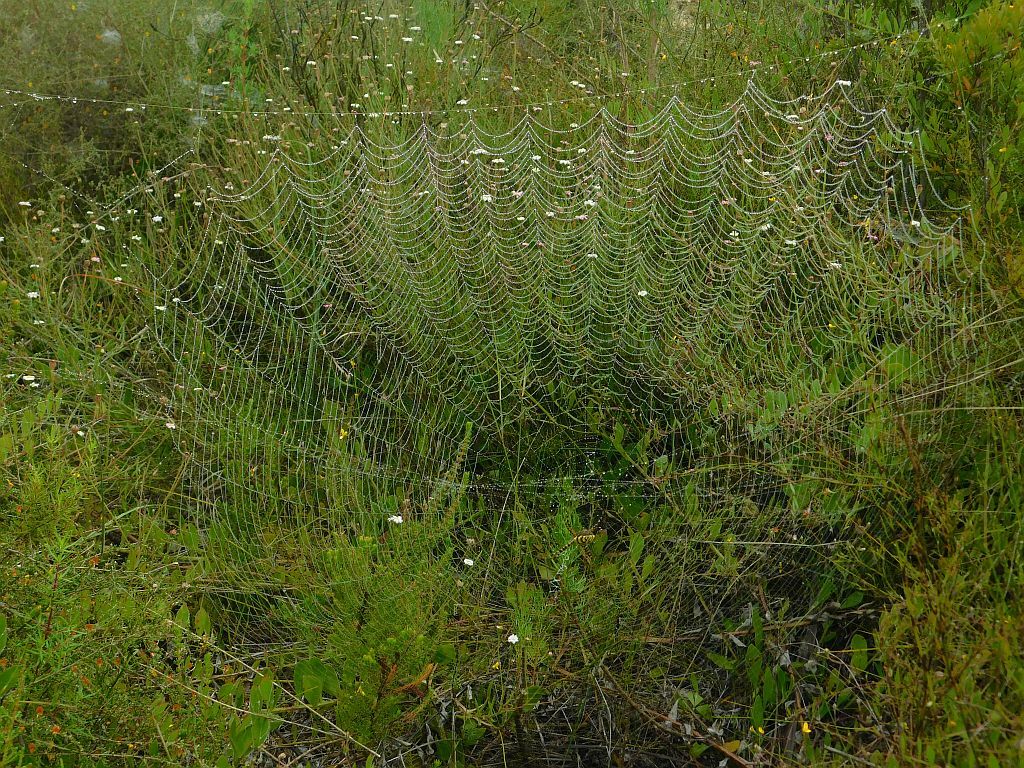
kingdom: Animalia
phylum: Arthropoda
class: Arachnida
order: Araneae
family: Araneidae
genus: Argiope
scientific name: Argiope australis
